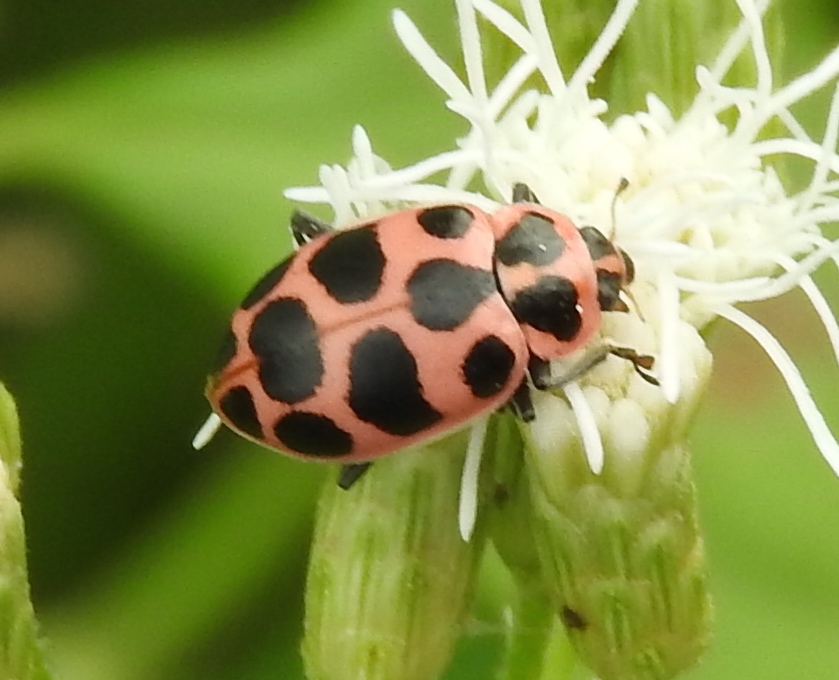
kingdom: Animalia
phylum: Arthropoda
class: Insecta
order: Coleoptera
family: Coccinellidae
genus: Coleomegilla
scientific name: Coleomegilla maculata
